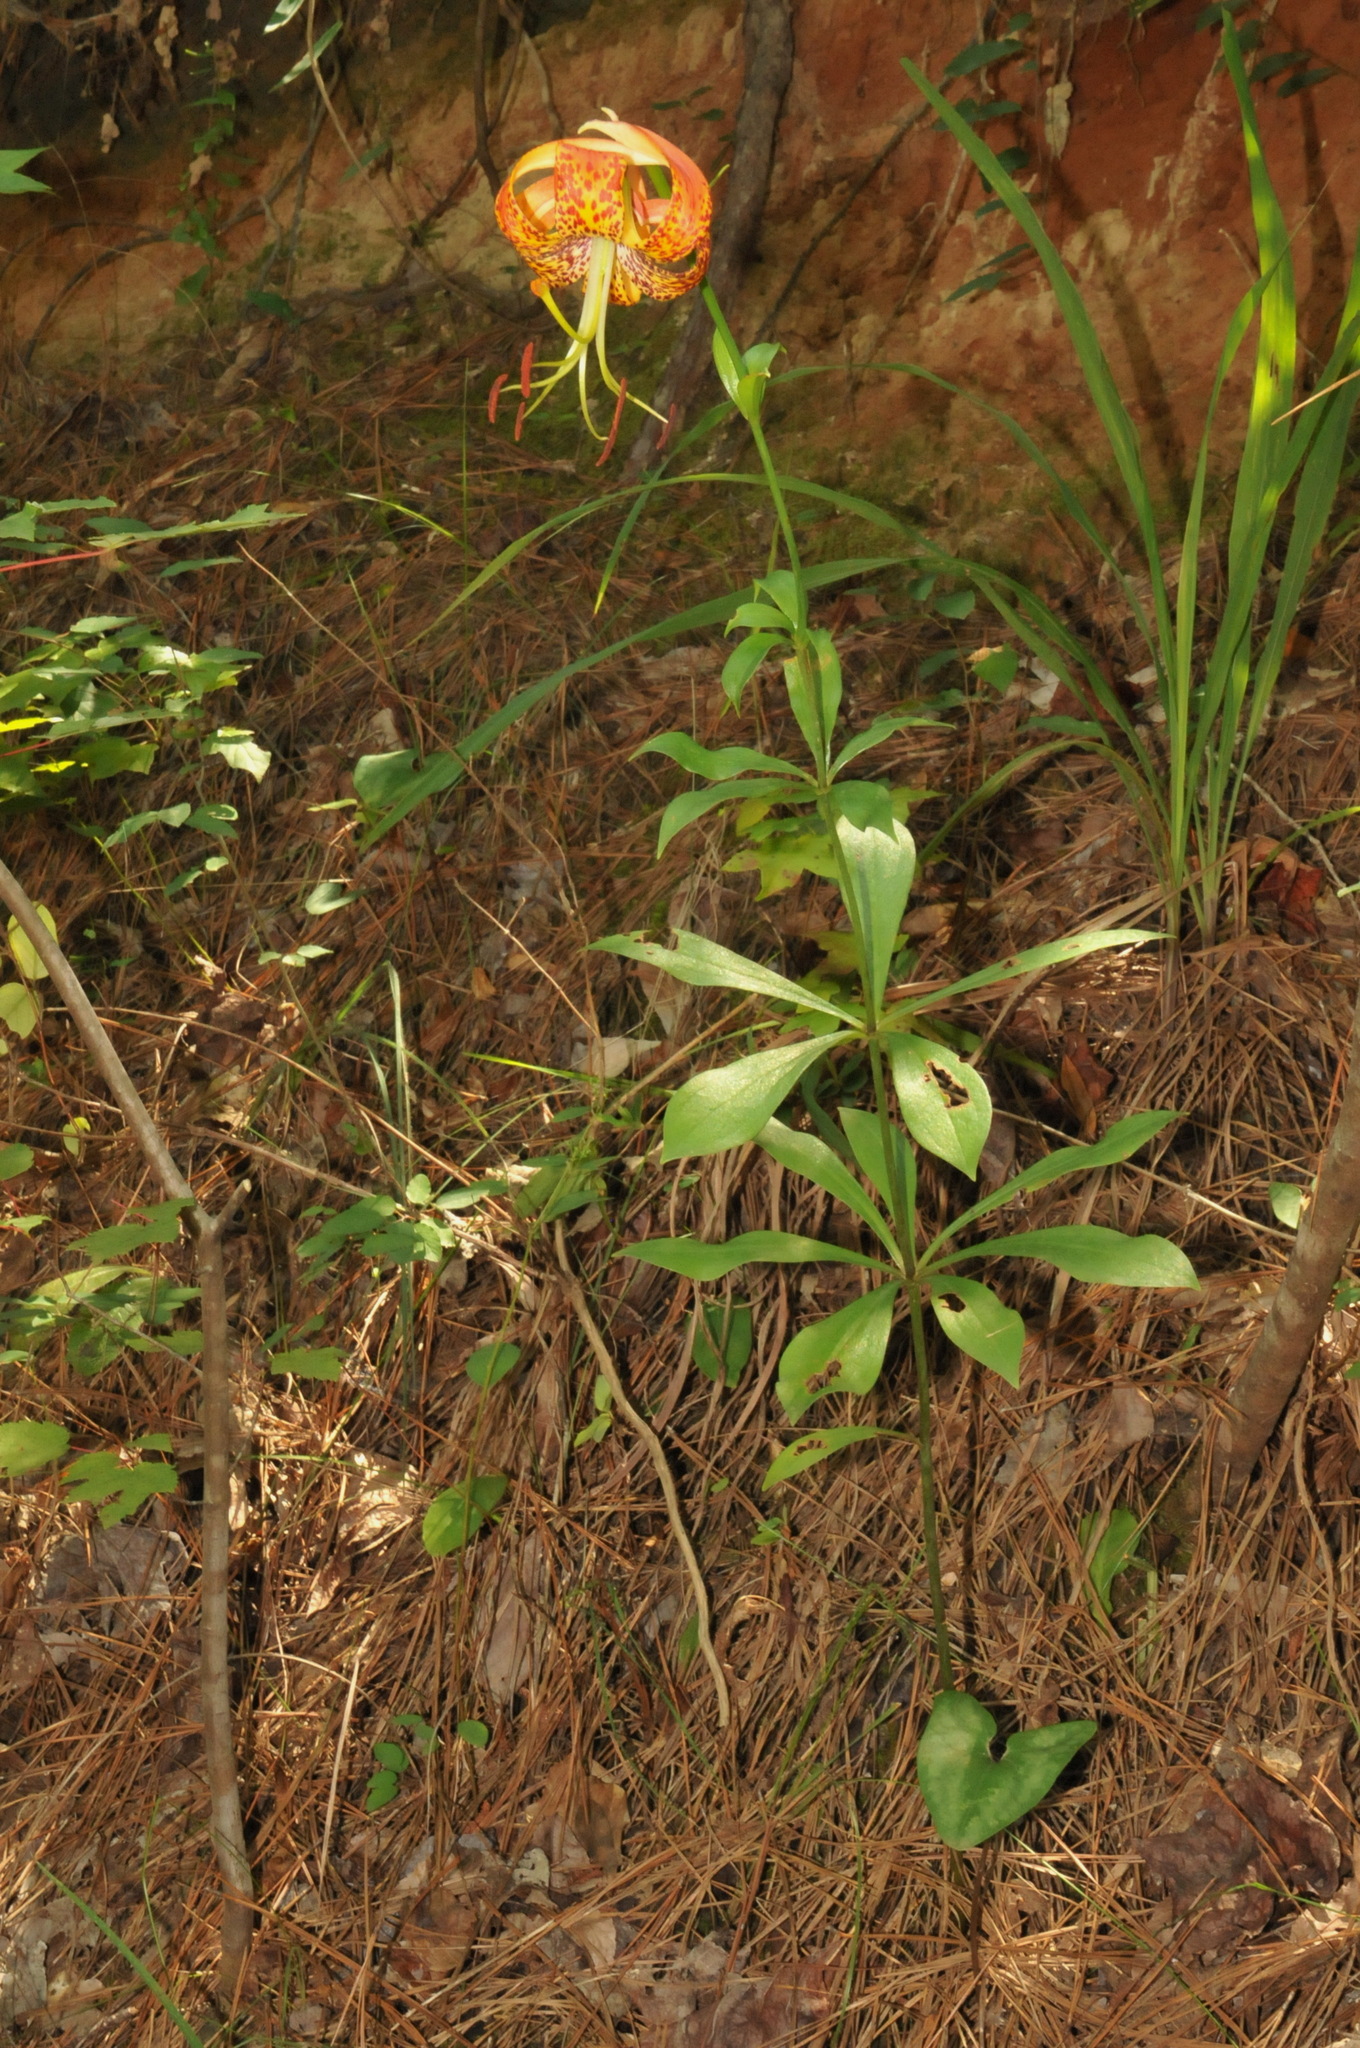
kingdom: Plantae
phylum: Tracheophyta
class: Liliopsida
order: Liliales
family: Liliaceae
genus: Lilium
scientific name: Lilium michauxii
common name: Carolina lily
